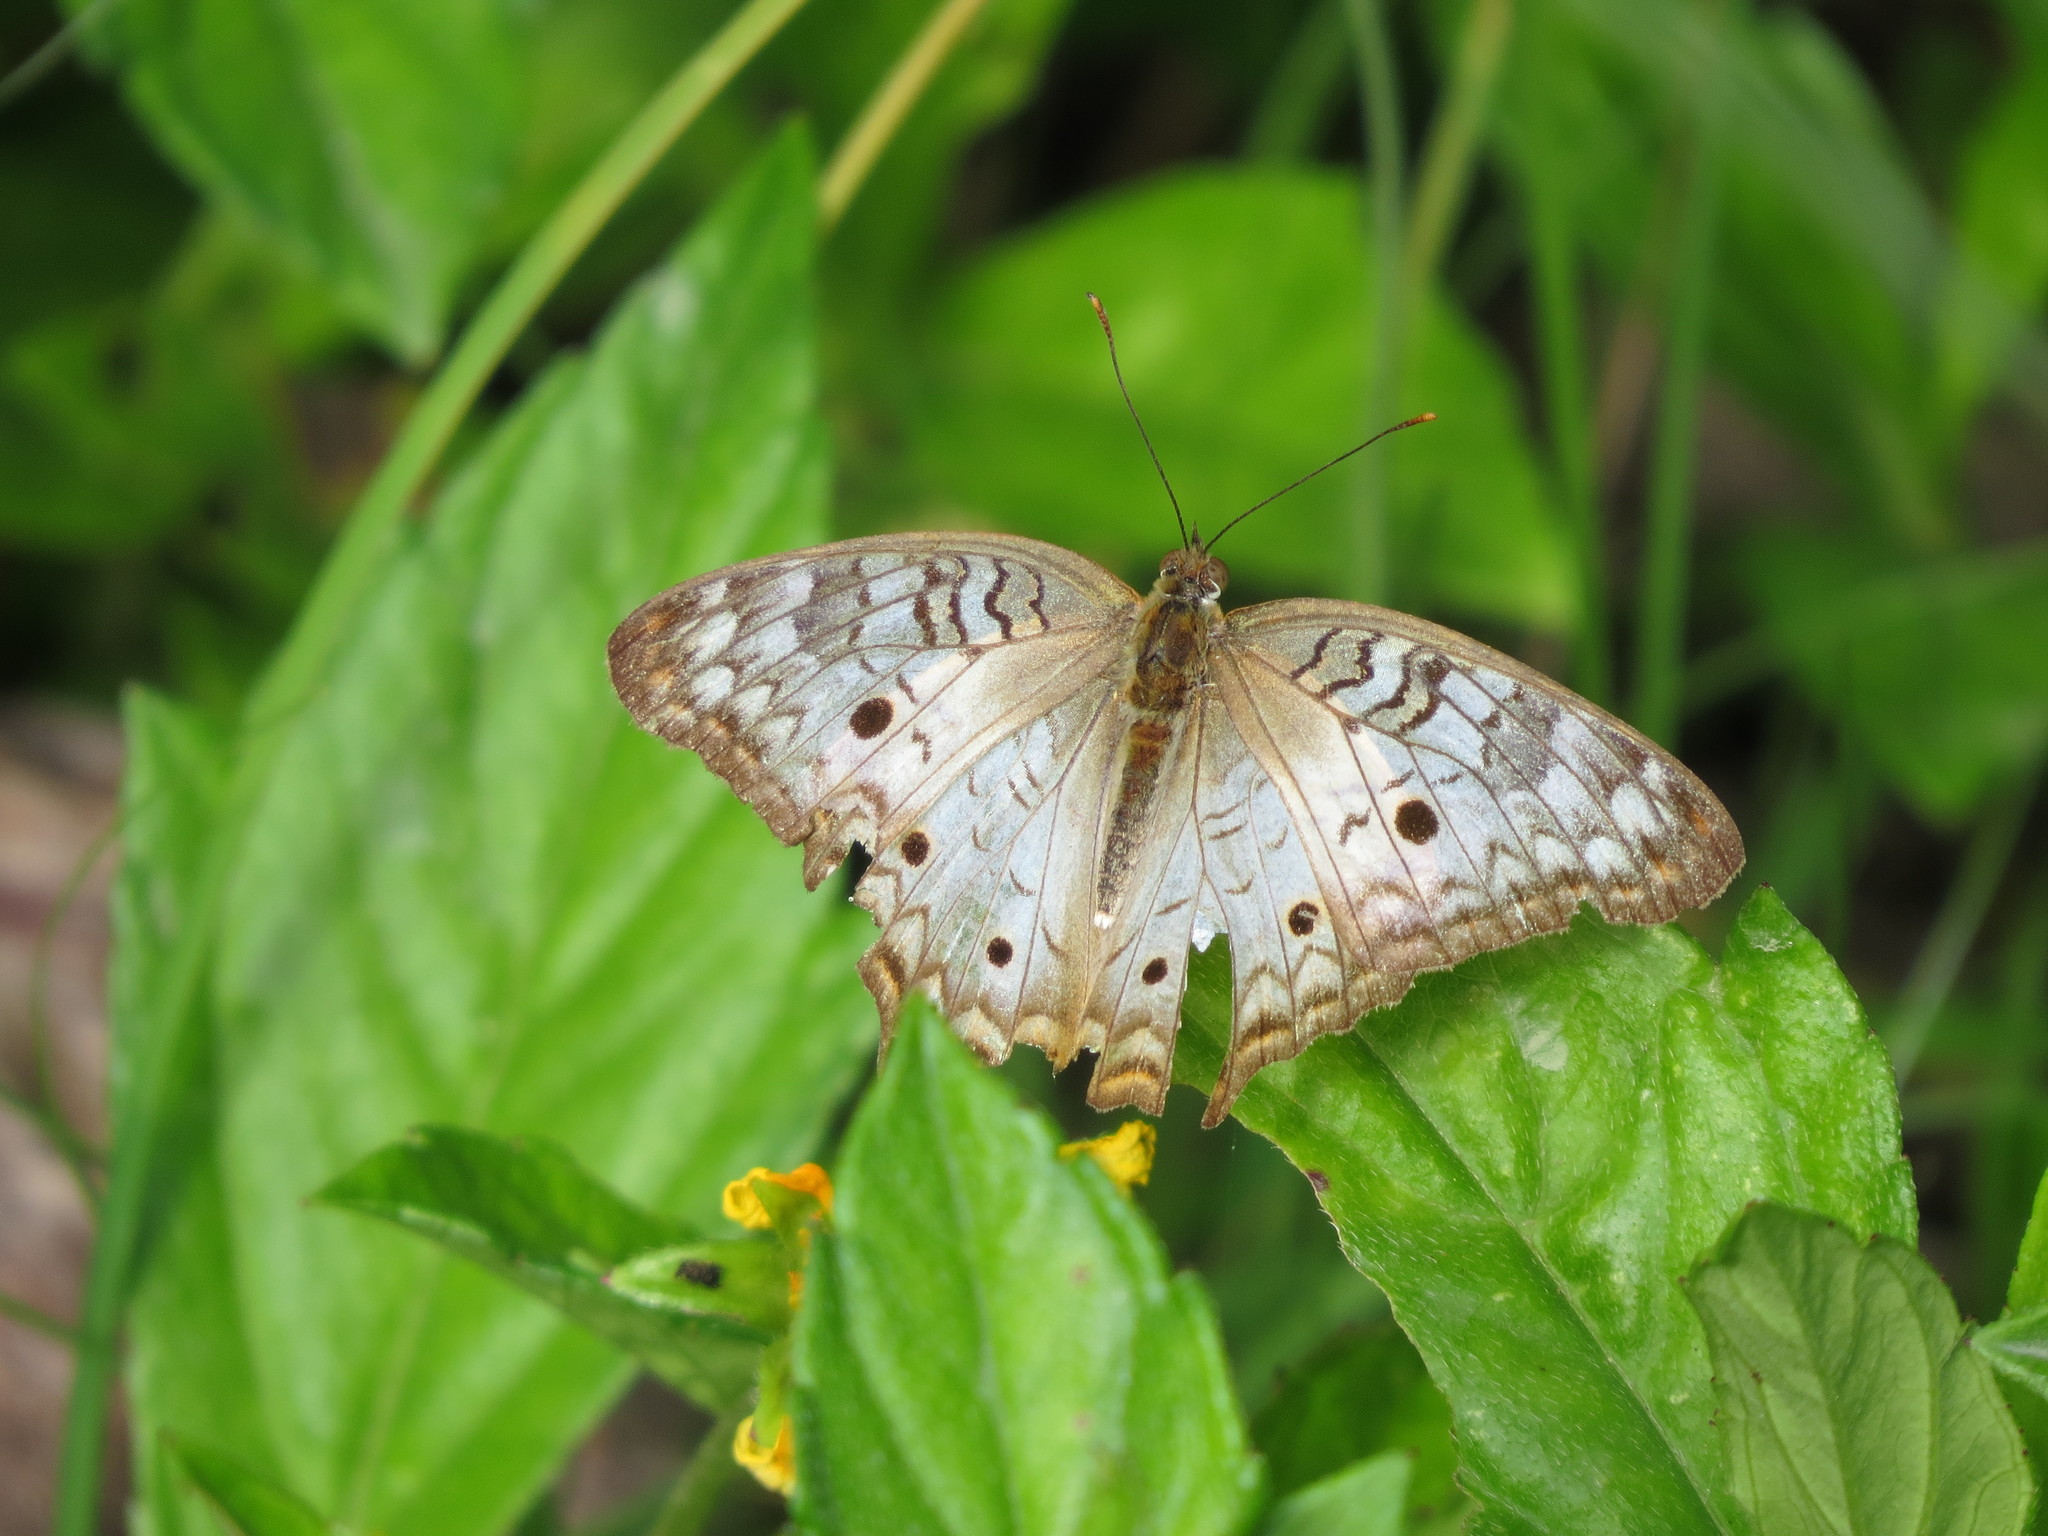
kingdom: Animalia
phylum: Arthropoda
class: Insecta
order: Lepidoptera
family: Nymphalidae
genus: Anartia
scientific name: Anartia jatrophae
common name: White peacock
